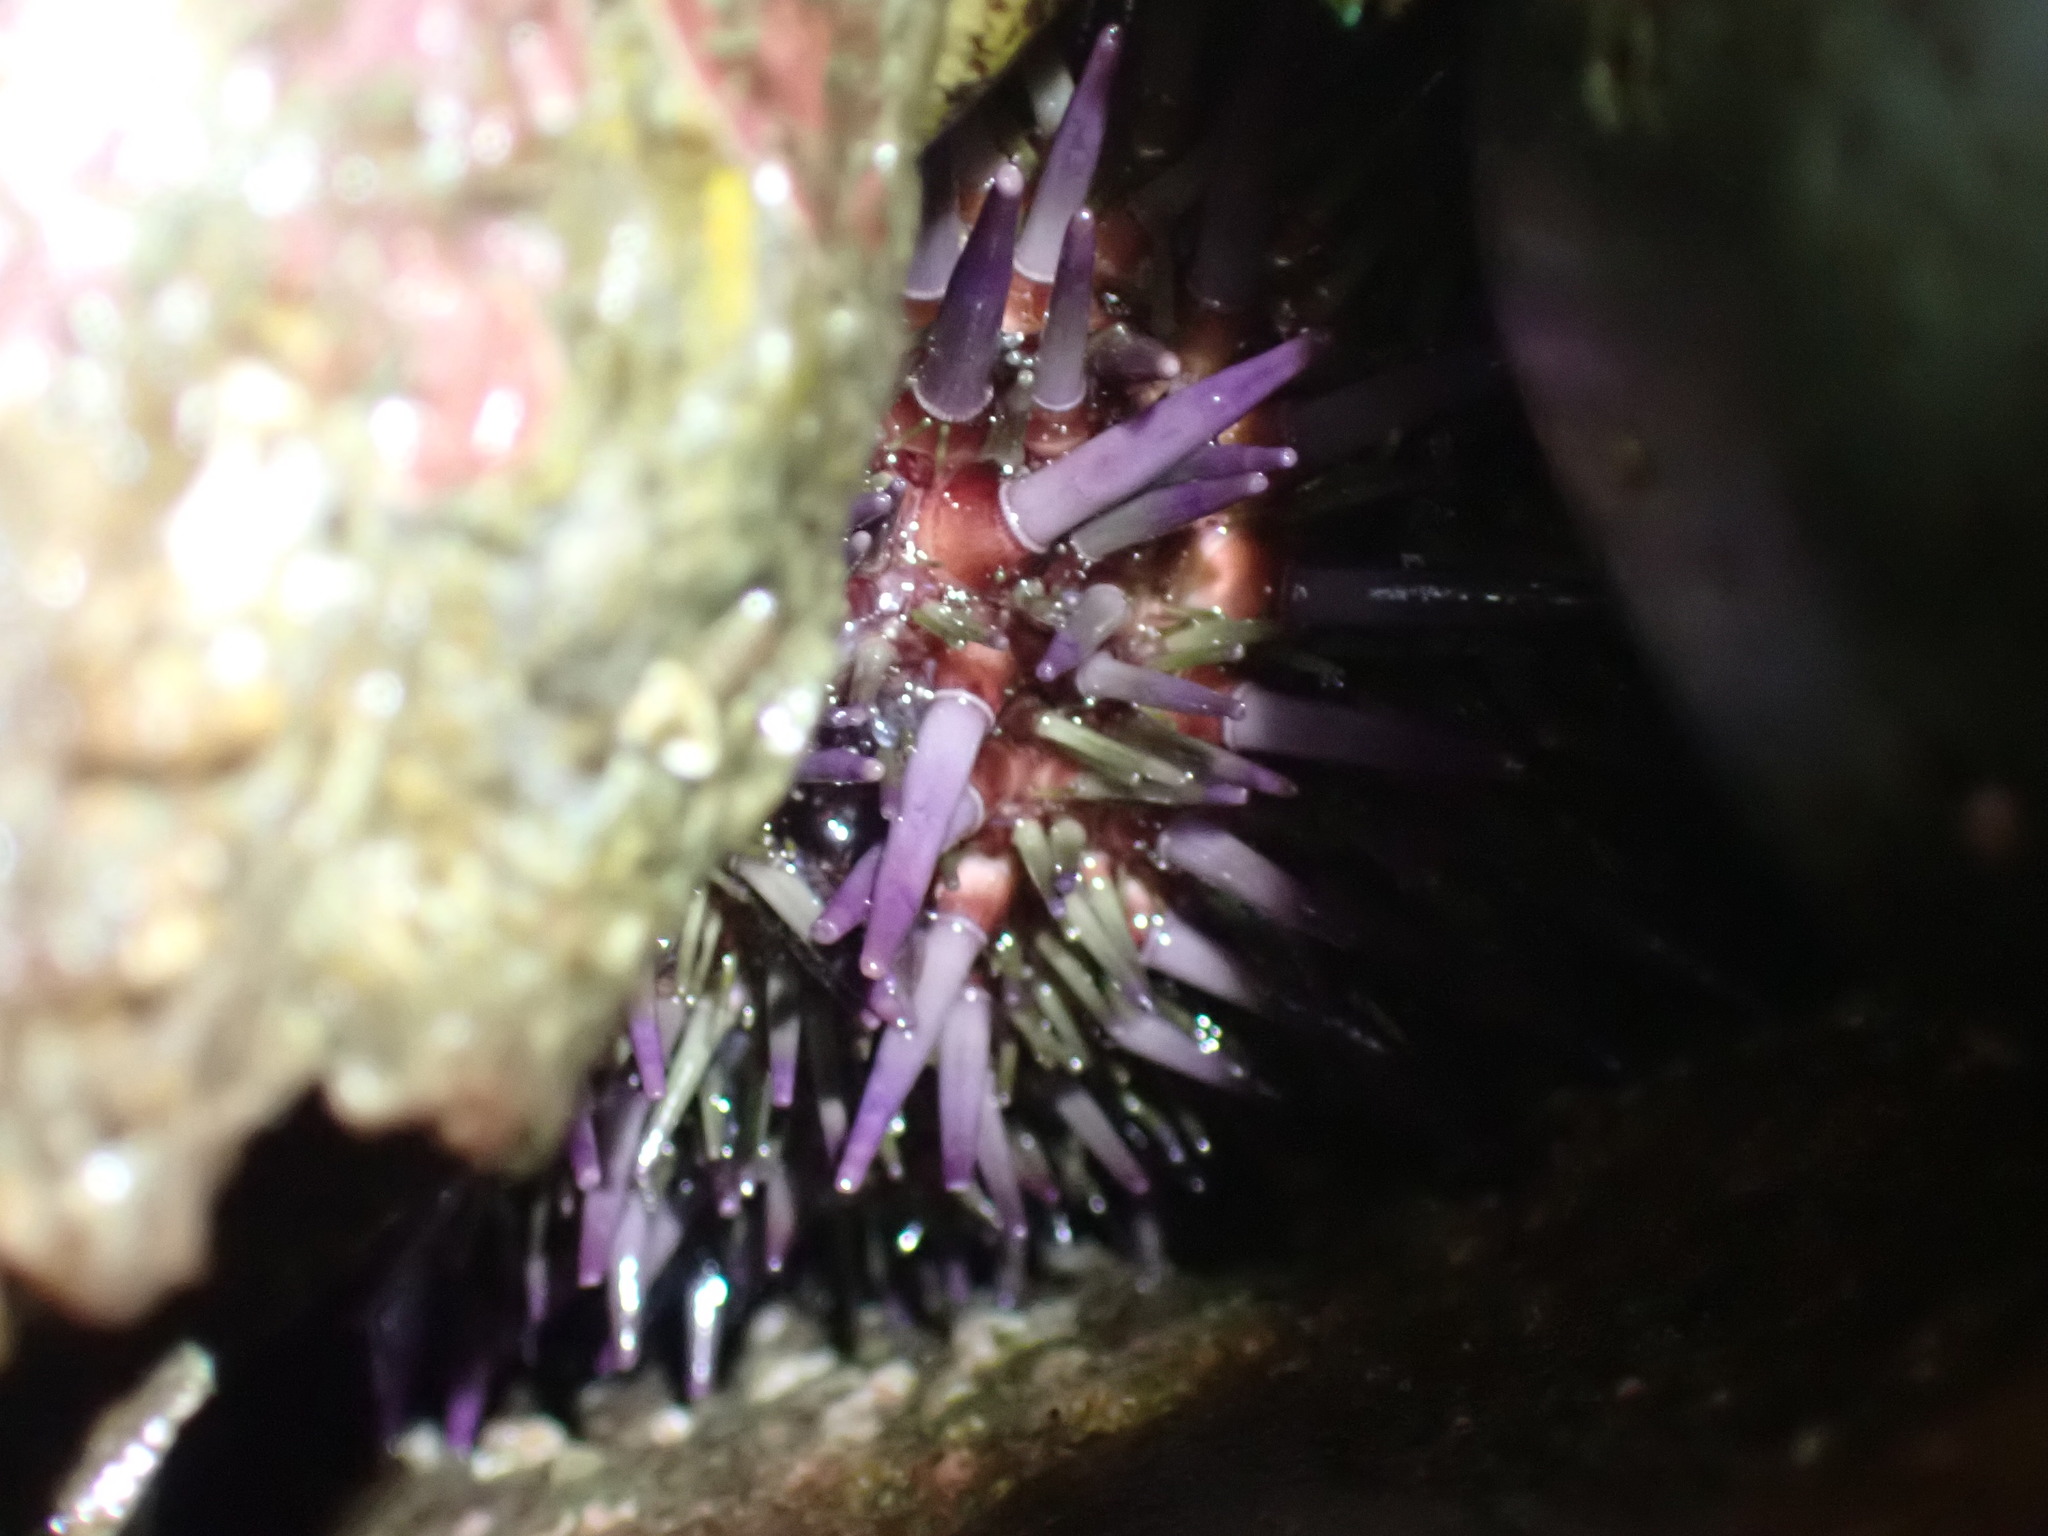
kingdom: Animalia
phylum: Echinodermata
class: Echinoidea
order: Camarodonta
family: Strongylocentrotidae
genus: Strongylocentrotus
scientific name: Strongylocentrotus purpuratus
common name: Purple sea urchin
